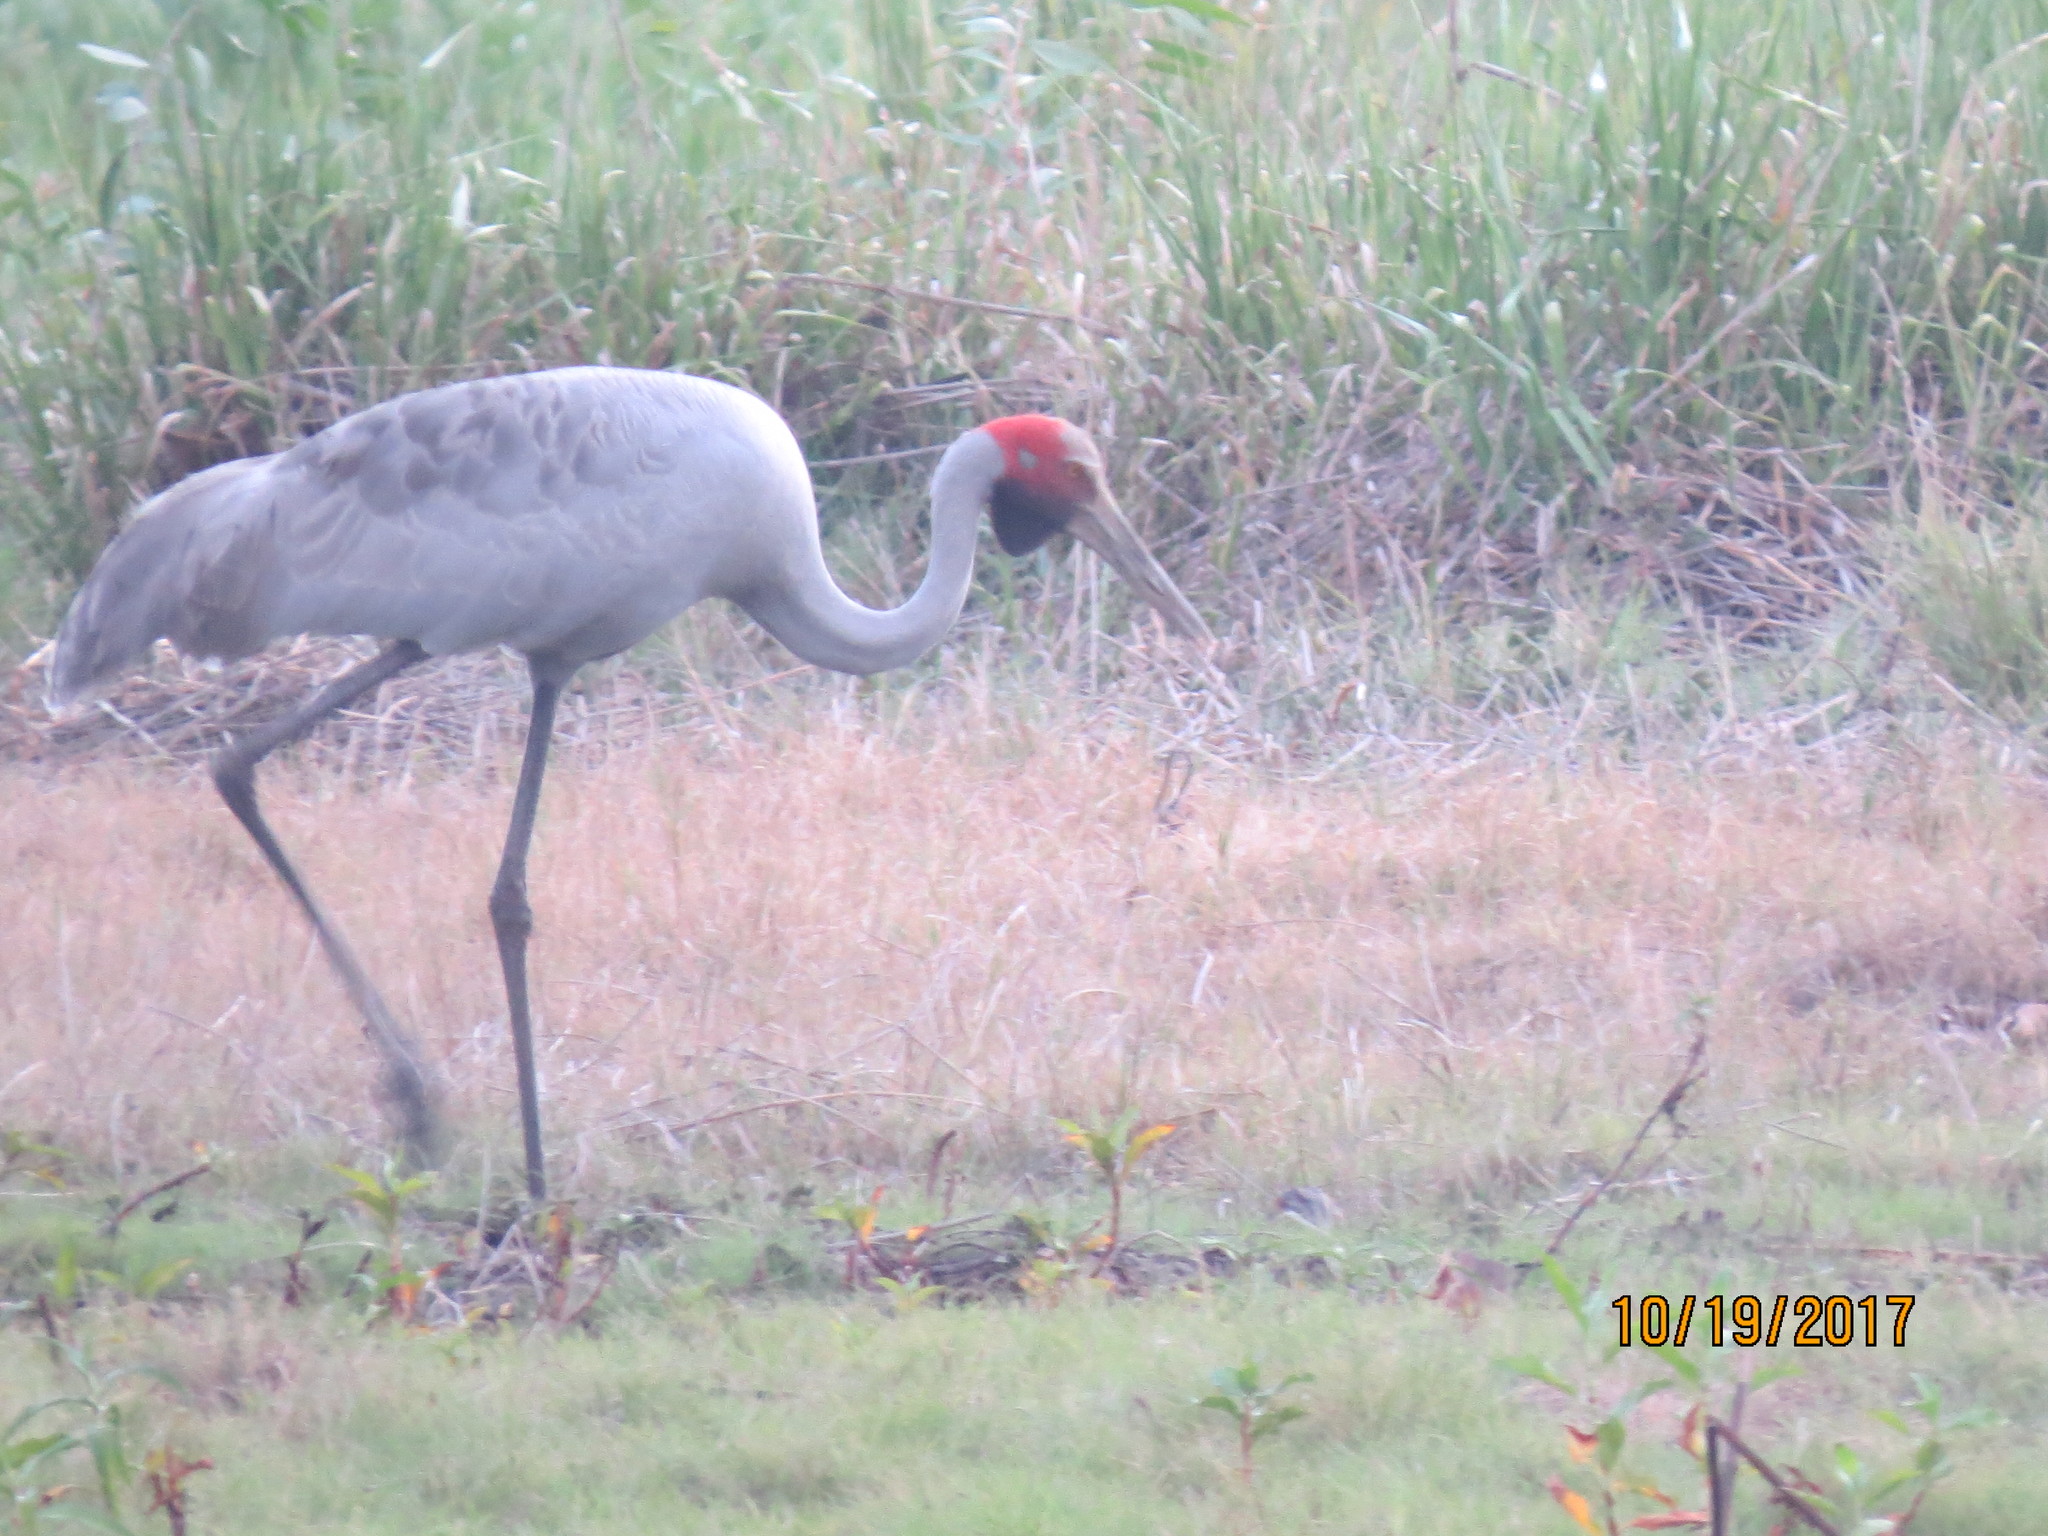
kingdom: Animalia
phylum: Chordata
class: Aves
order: Gruiformes
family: Gruidae
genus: Grus
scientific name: Grus rubicunda
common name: Brolga
